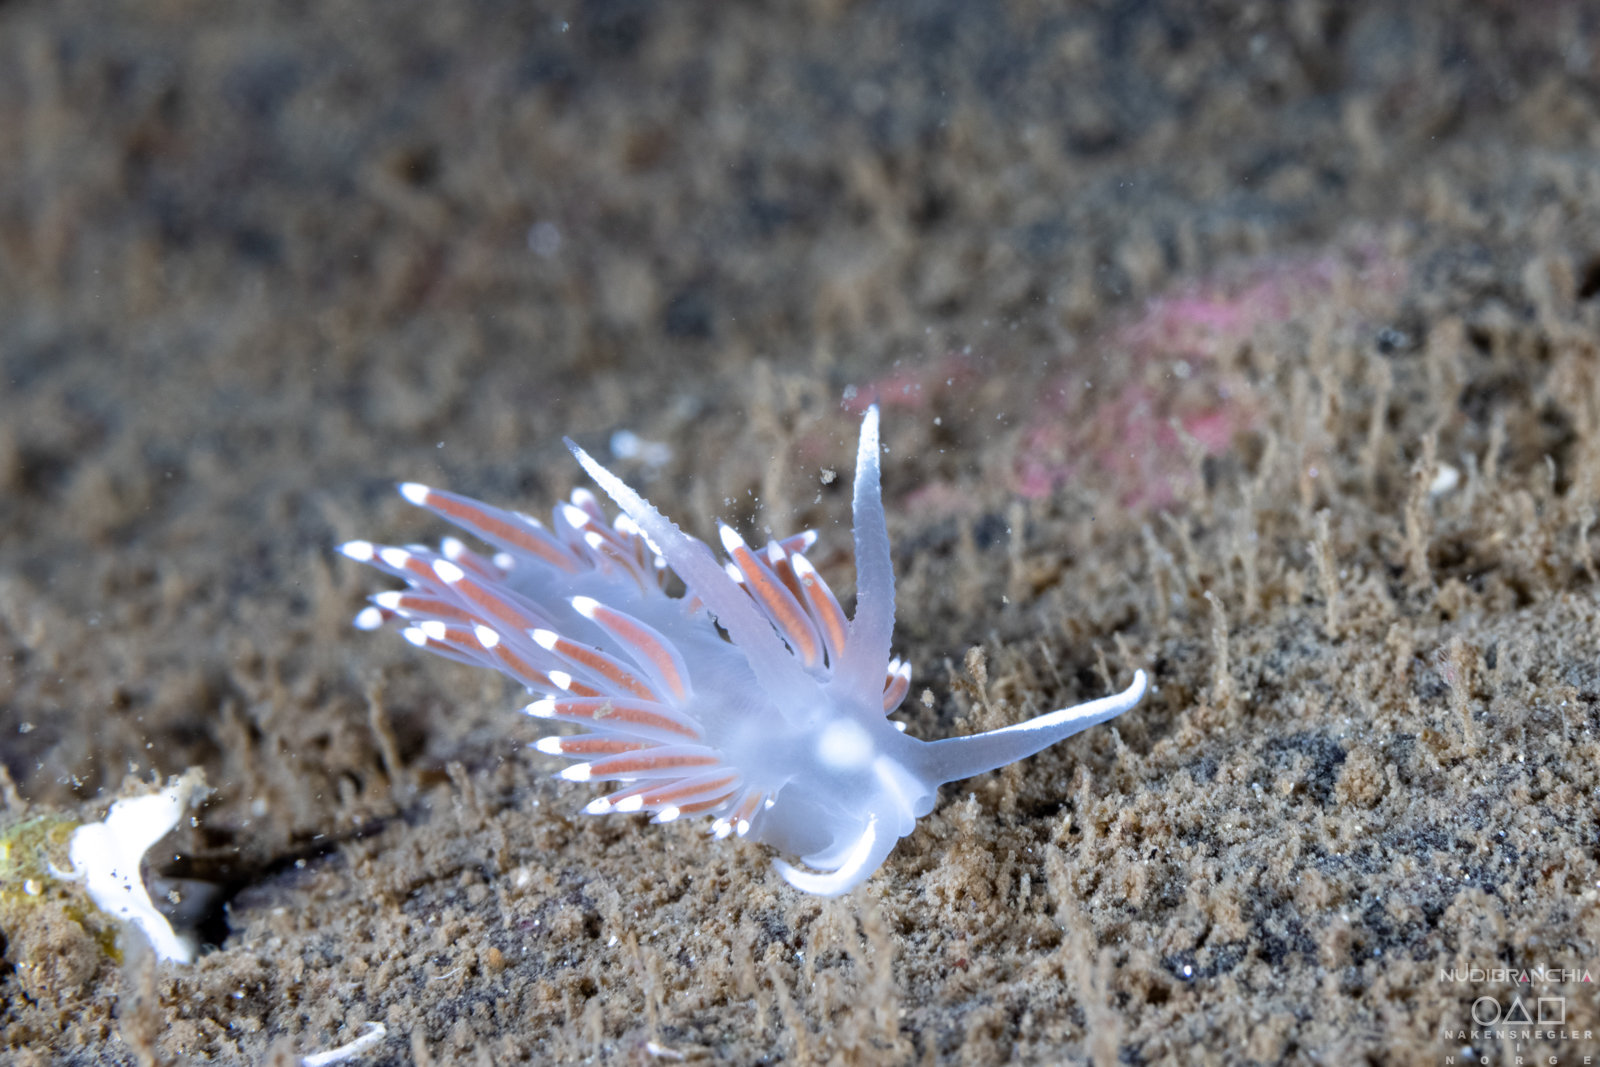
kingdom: Animalia
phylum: Mollusca
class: Gastropoda
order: Nudibranchia
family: Coryphellidae
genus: Coryphella
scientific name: Coryphella browni
